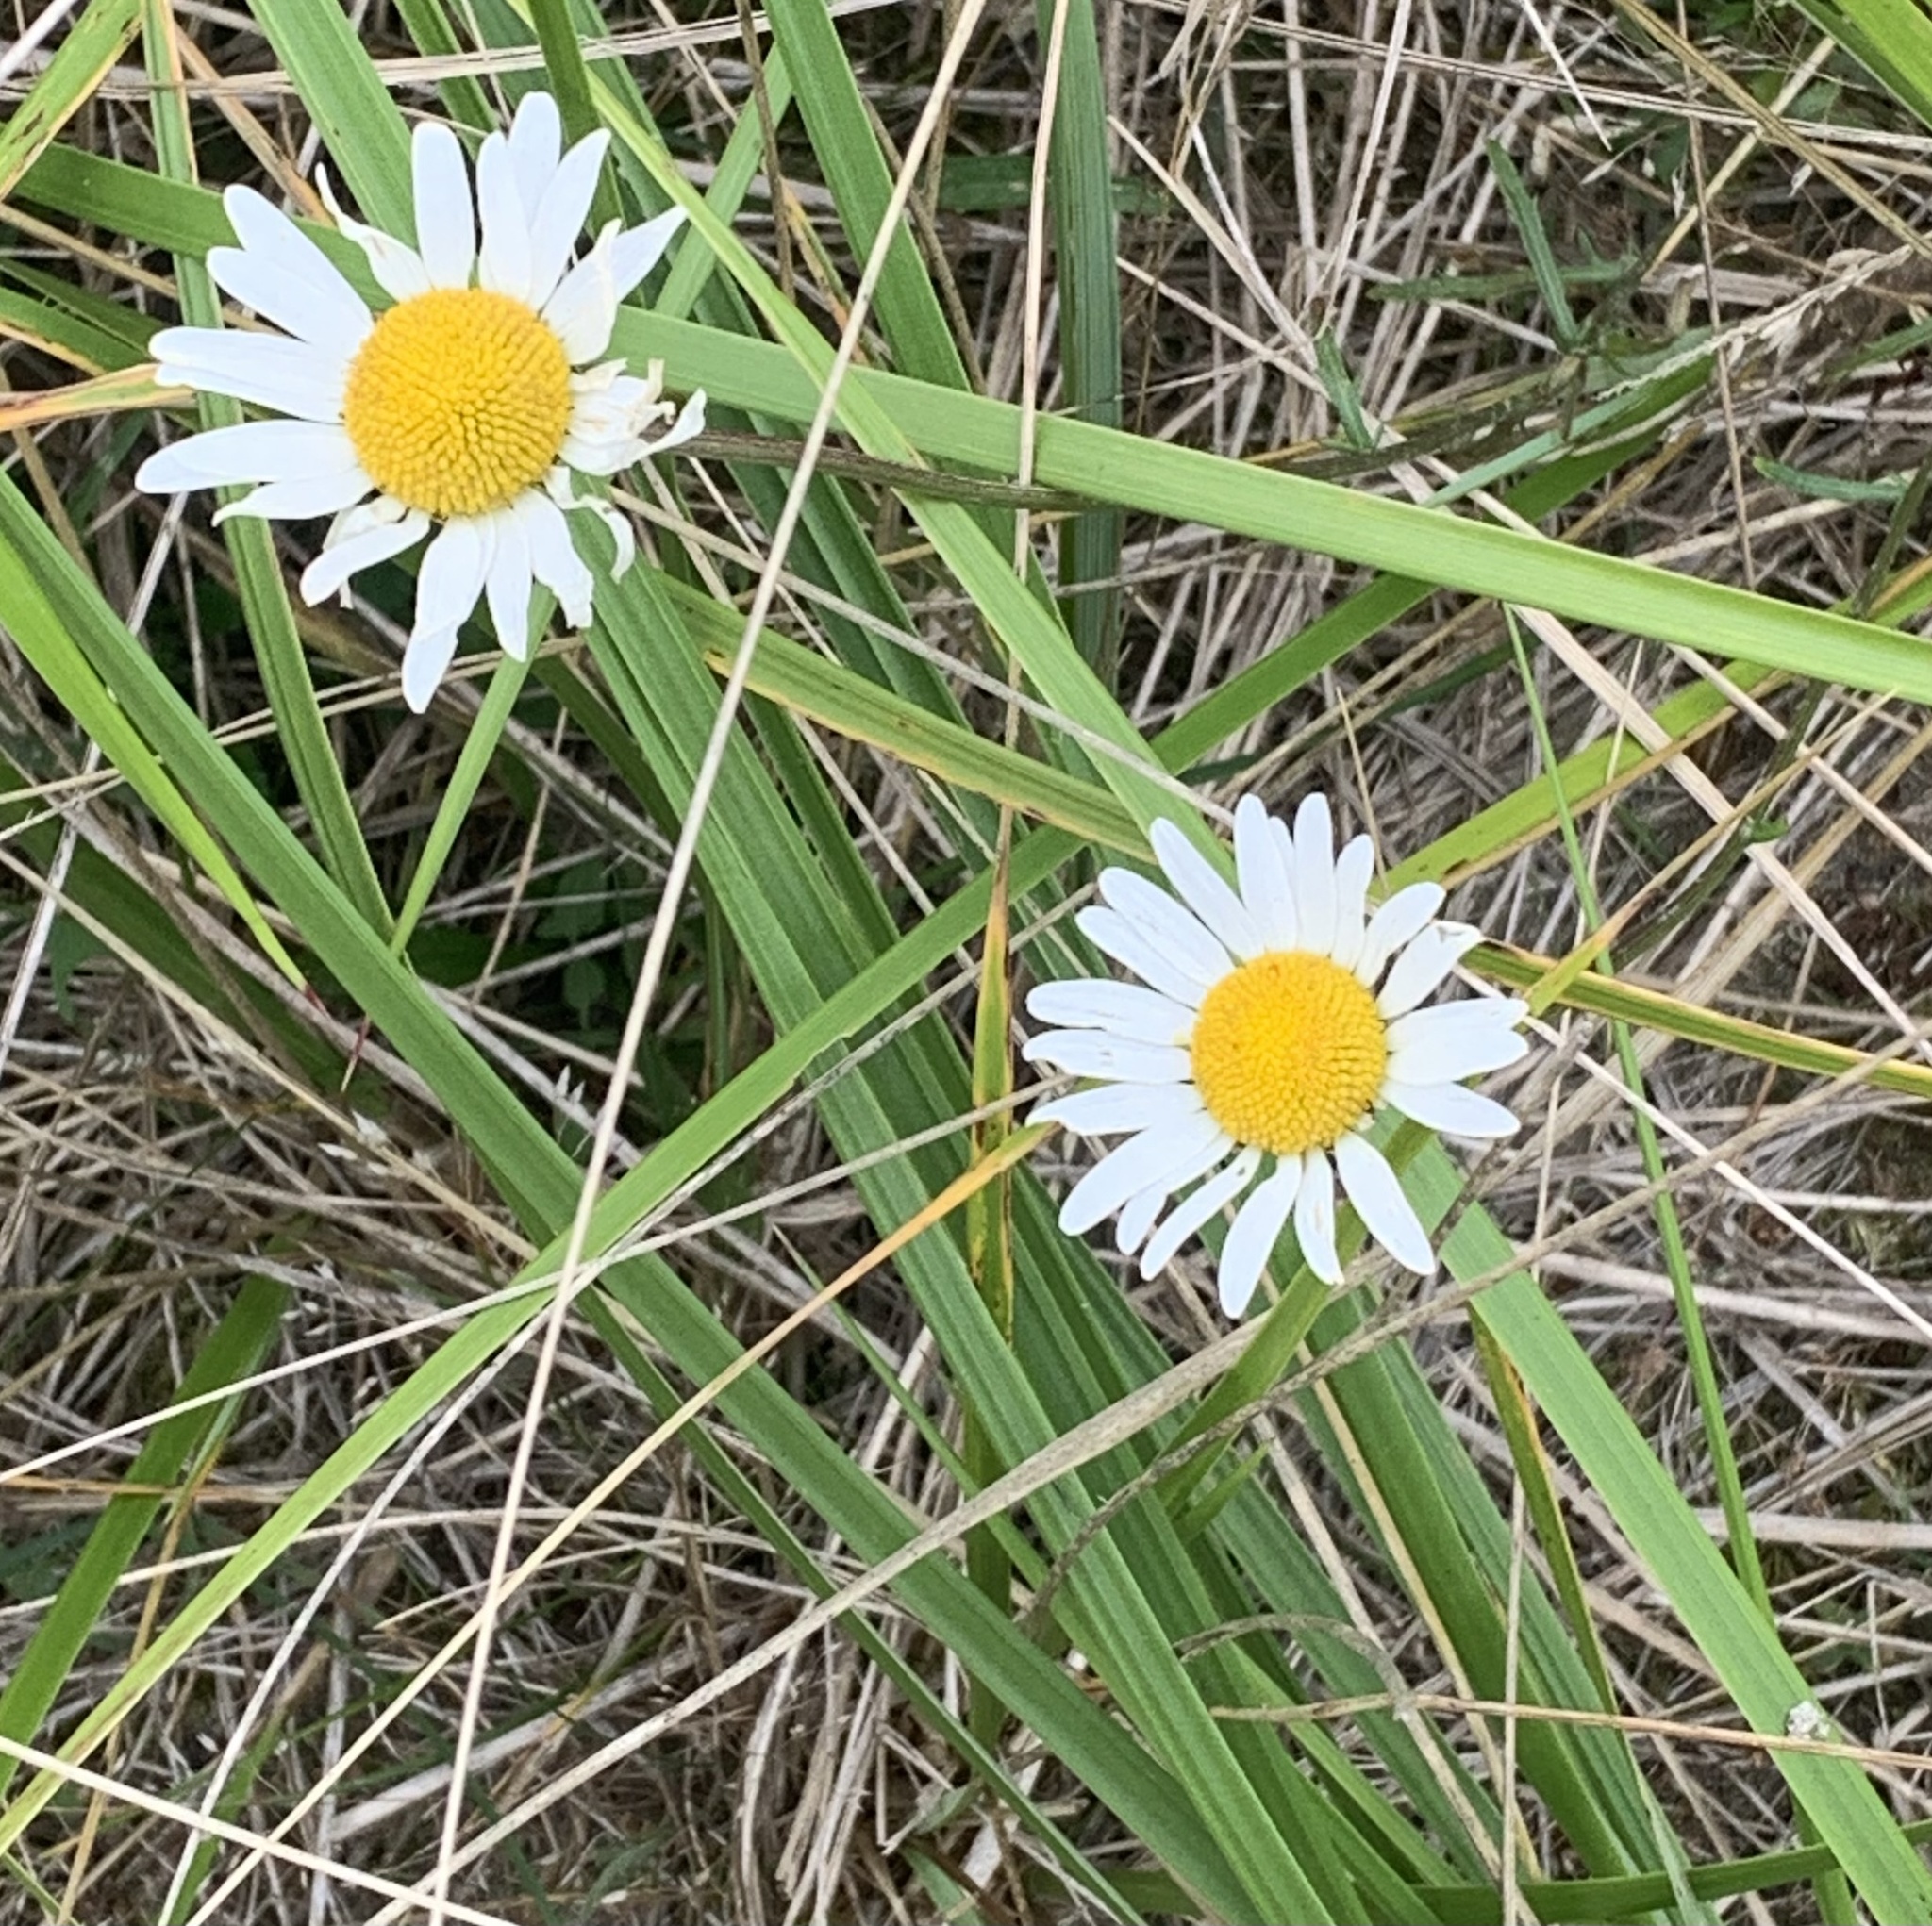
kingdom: Plantae
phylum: Tracheophyta
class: Magnoliopsida
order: Asterales
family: Asteraceae
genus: Leucanthemum
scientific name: Leucanthemum vulgare
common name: Oxeye daisy
